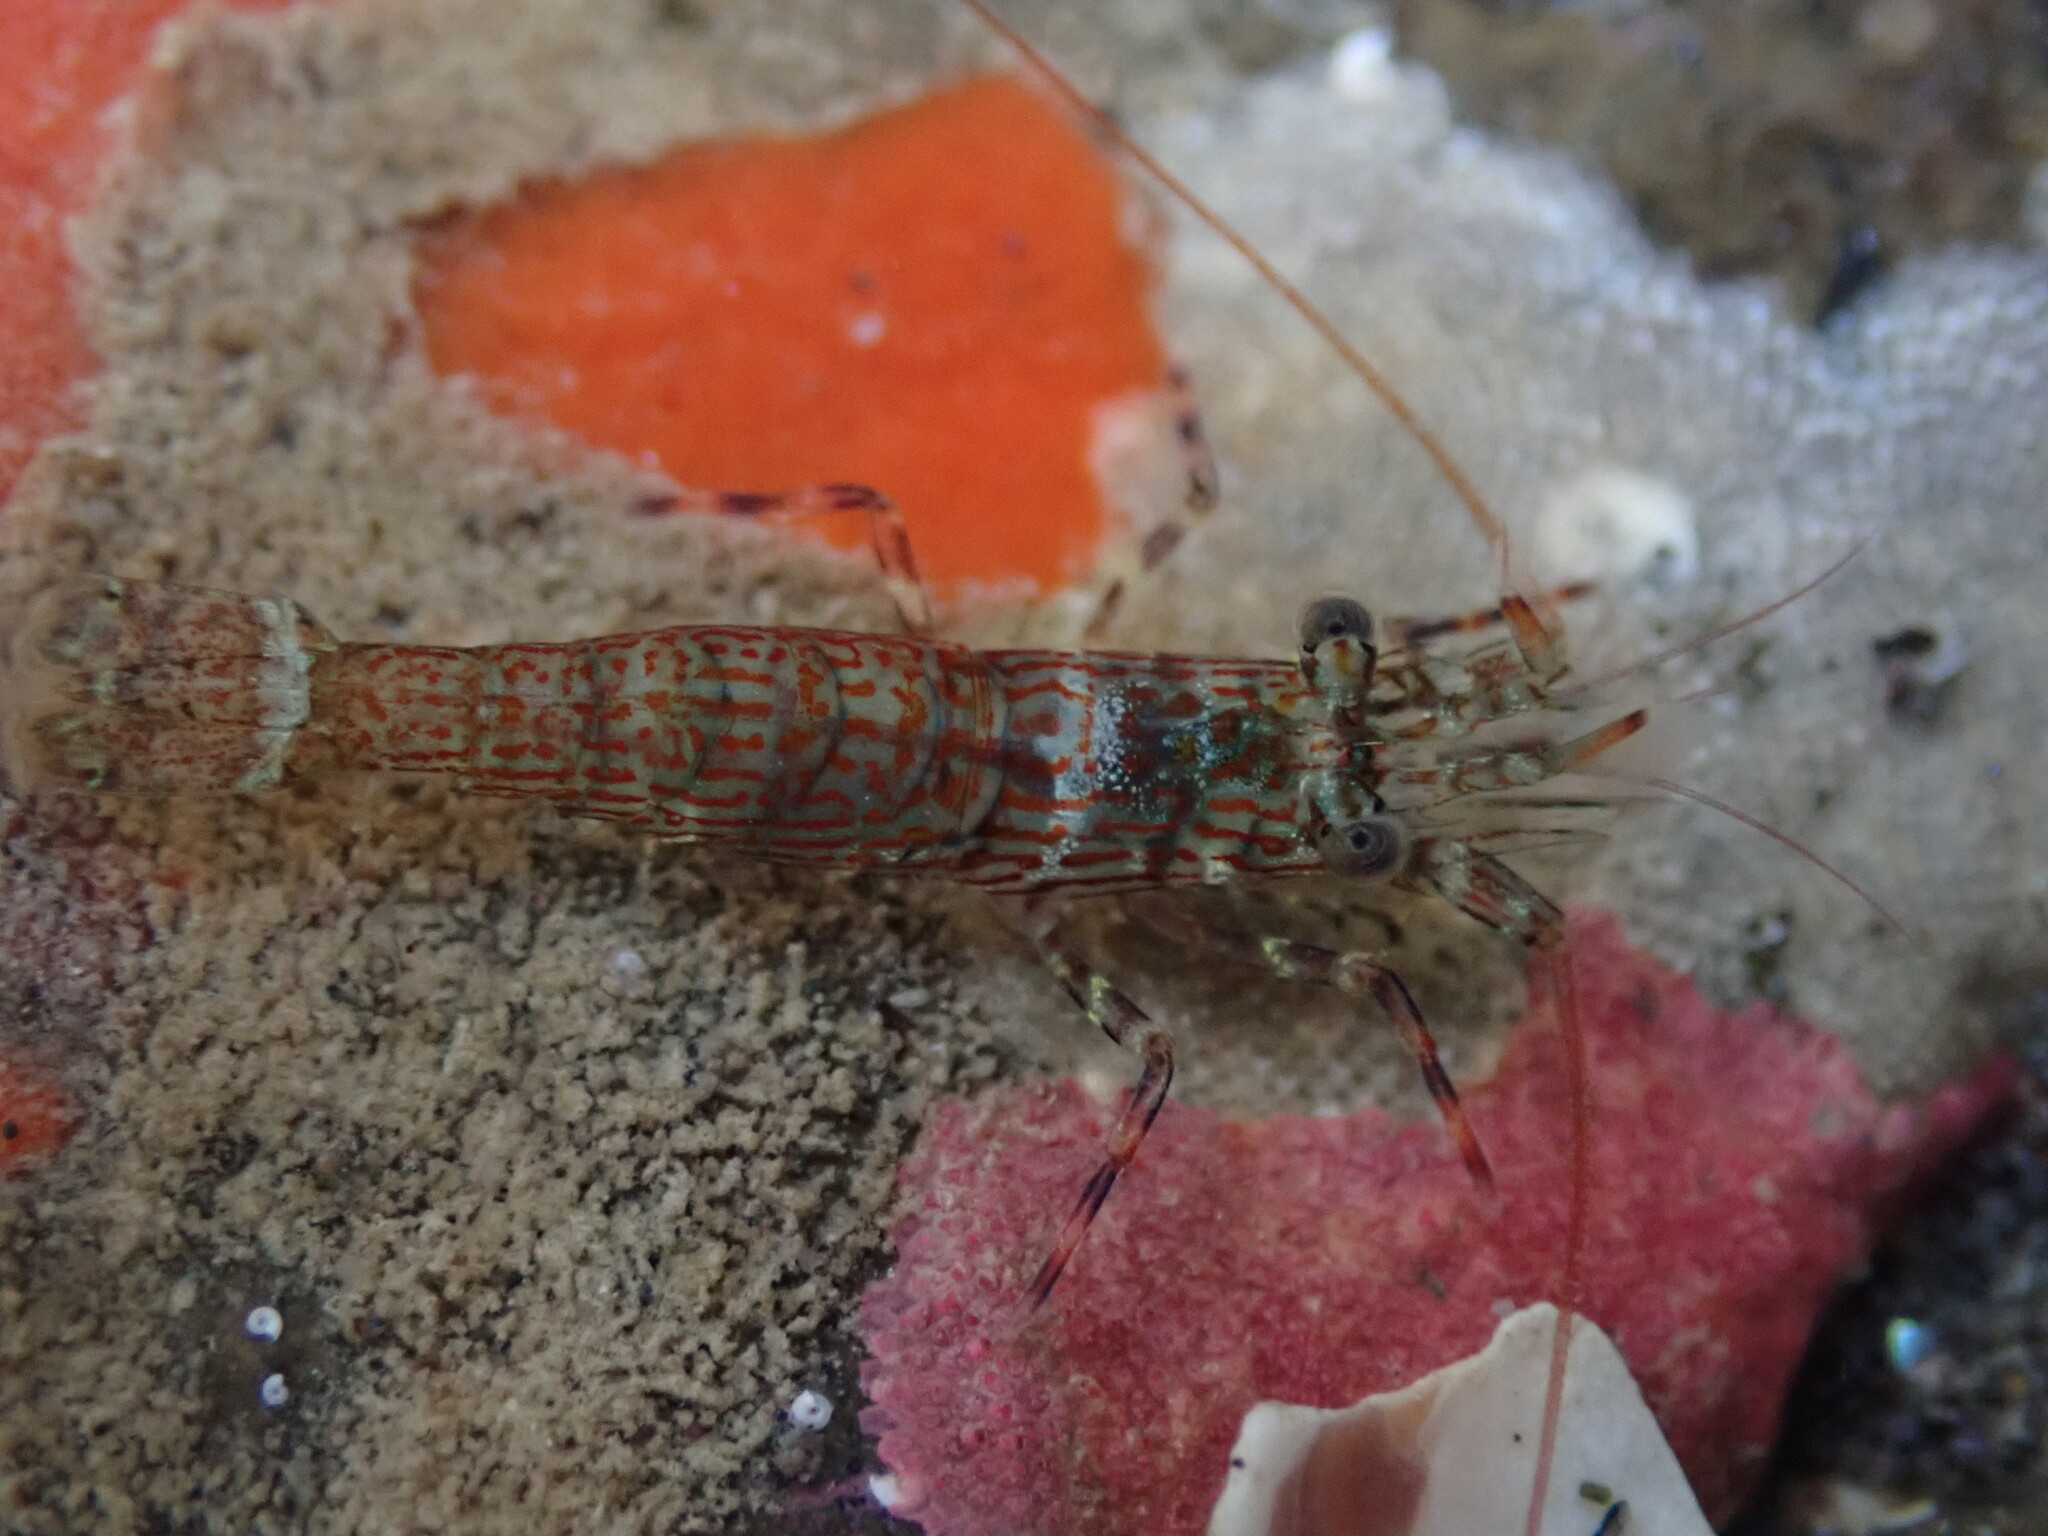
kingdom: Animalia
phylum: Arthropoda
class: Malacostraca
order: Decapoda
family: Hippolytidae
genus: Alope
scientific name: Alope spinifrons
